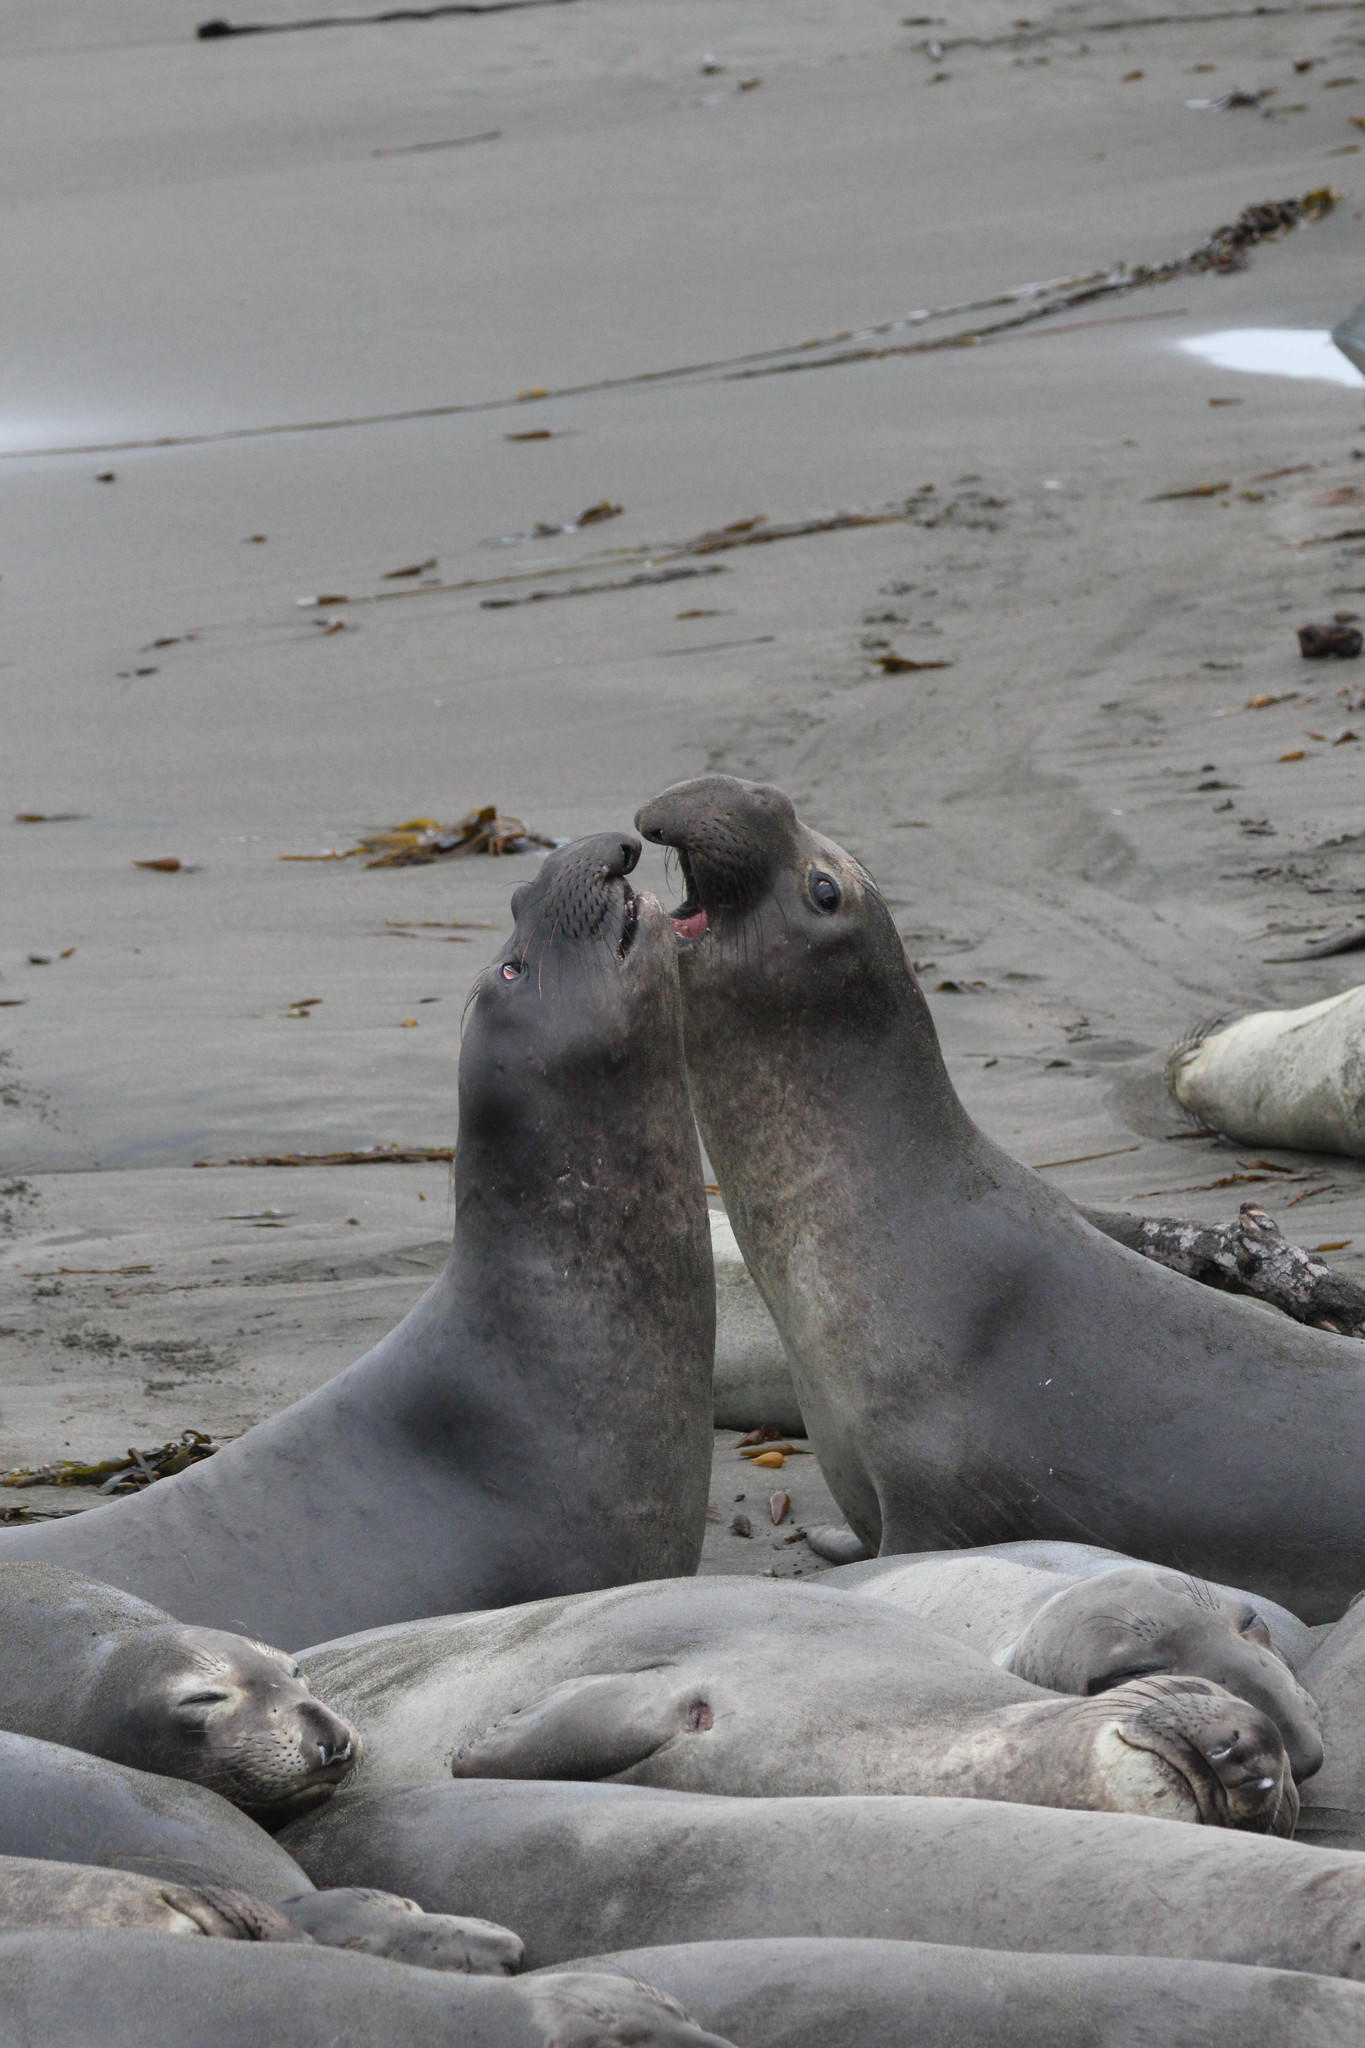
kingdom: Animalia
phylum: Chordata
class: Mammalia
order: Carnivora
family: Phocidae
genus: Mirounga
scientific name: Mirounga angustirostris
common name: Northern elephant seal
